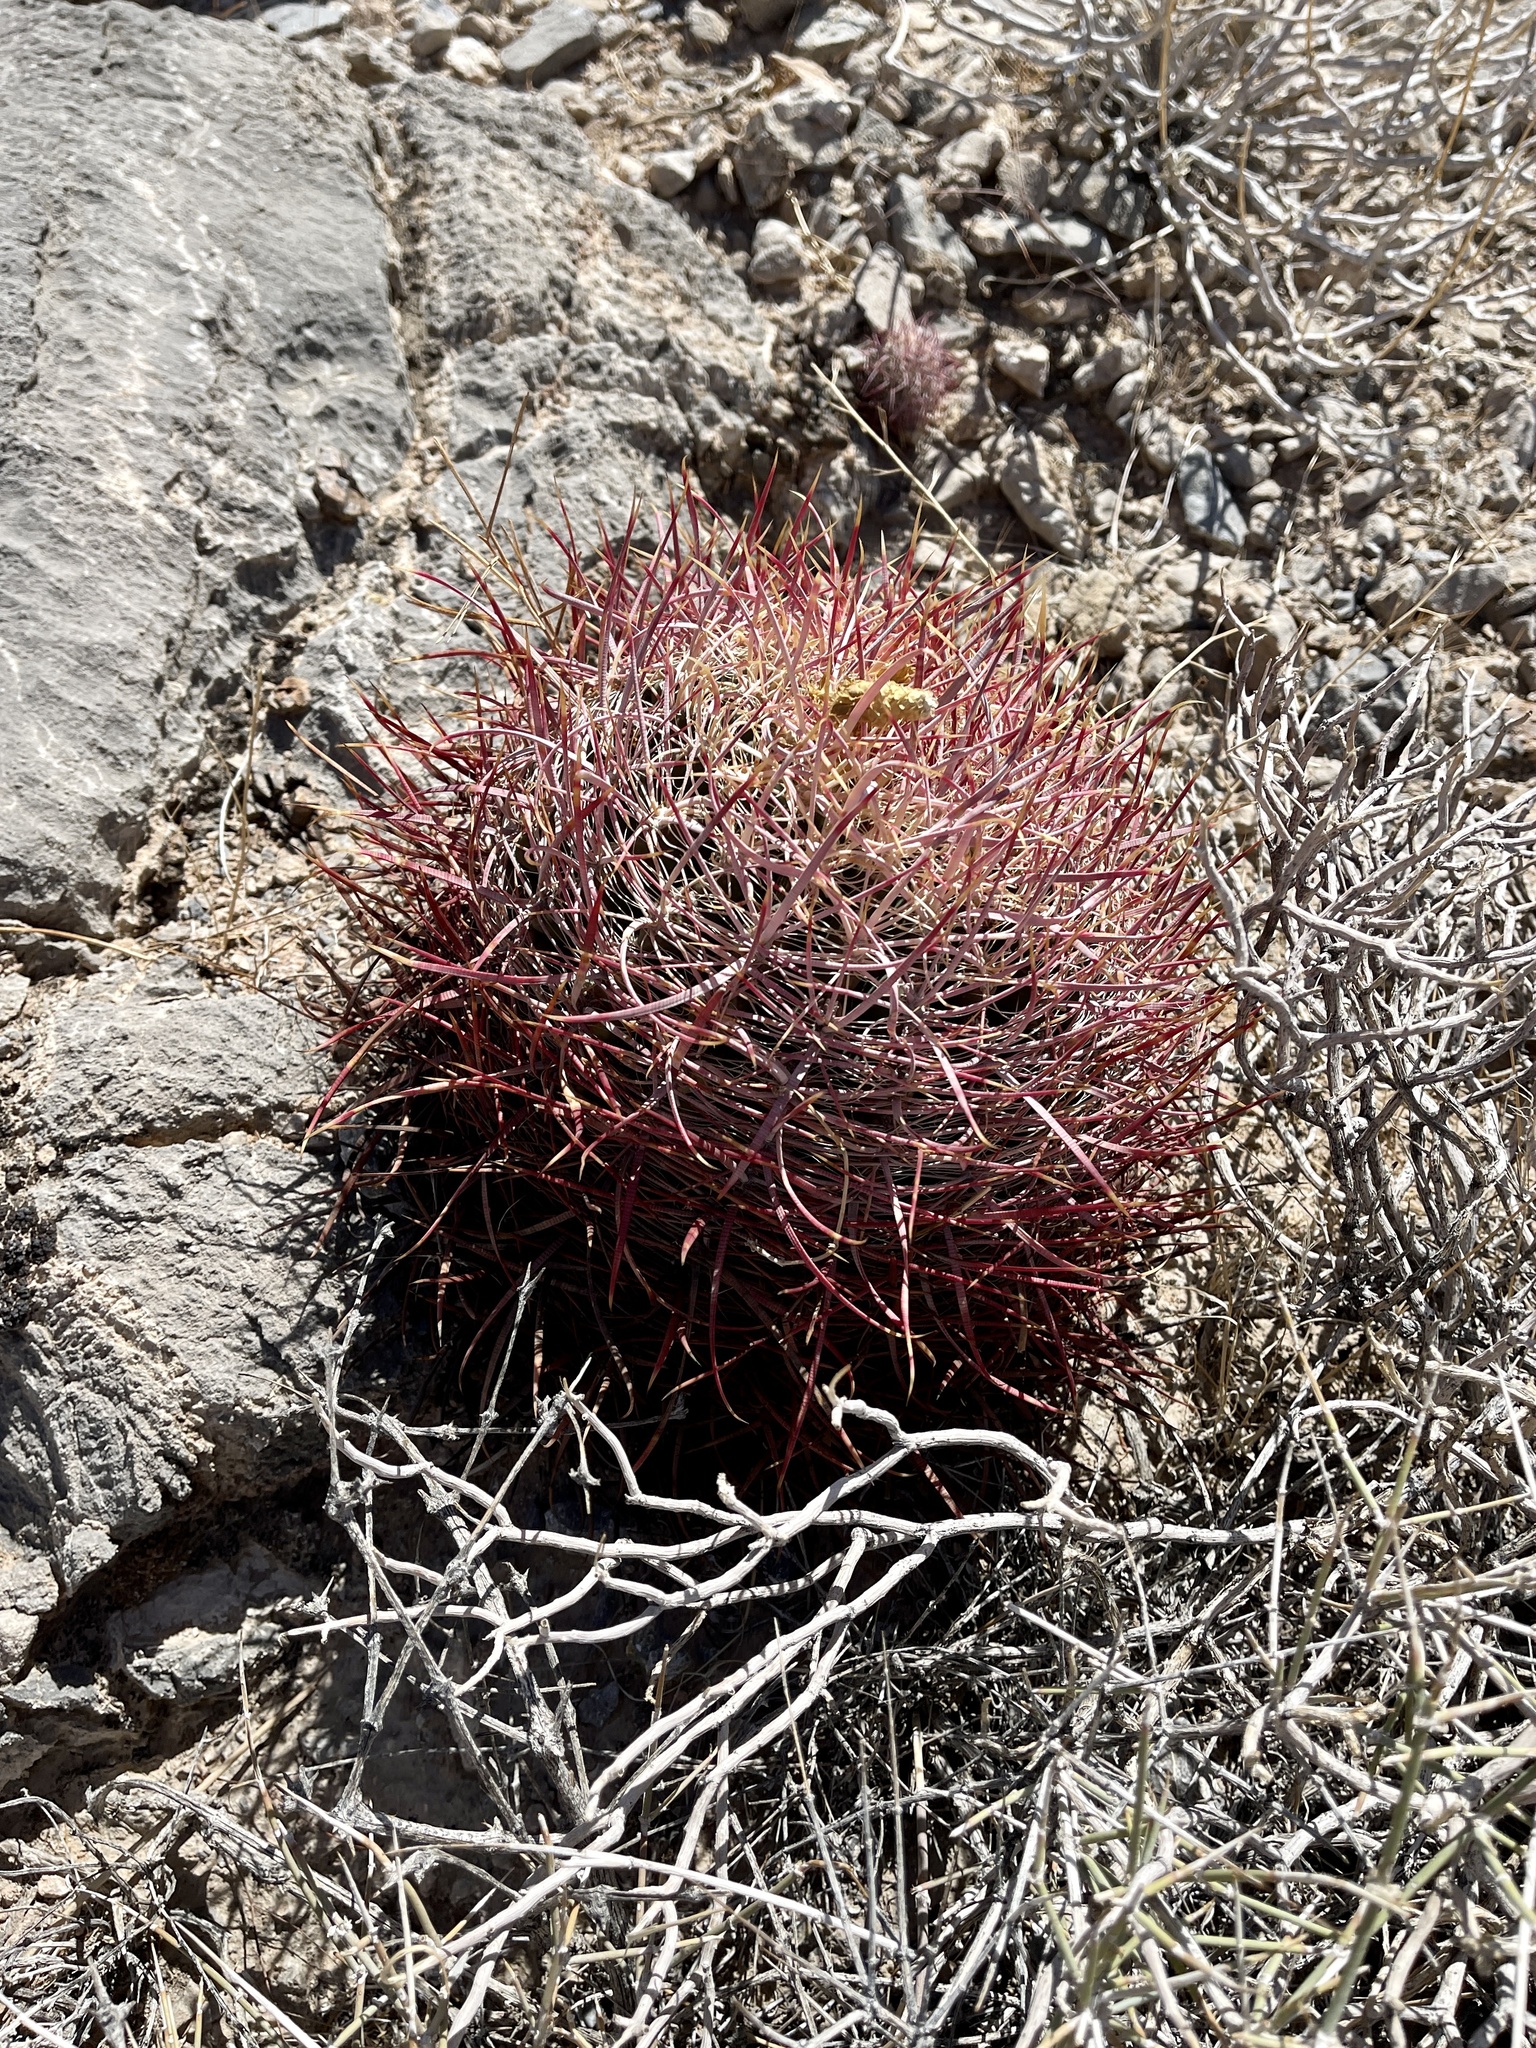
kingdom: Plantae
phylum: Tracheophyta
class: Magnoliopsida
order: Caryophyllales
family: Cactaceae
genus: Ferocactus
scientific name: Ferocactus cylindraceus
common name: California barrel cactus
